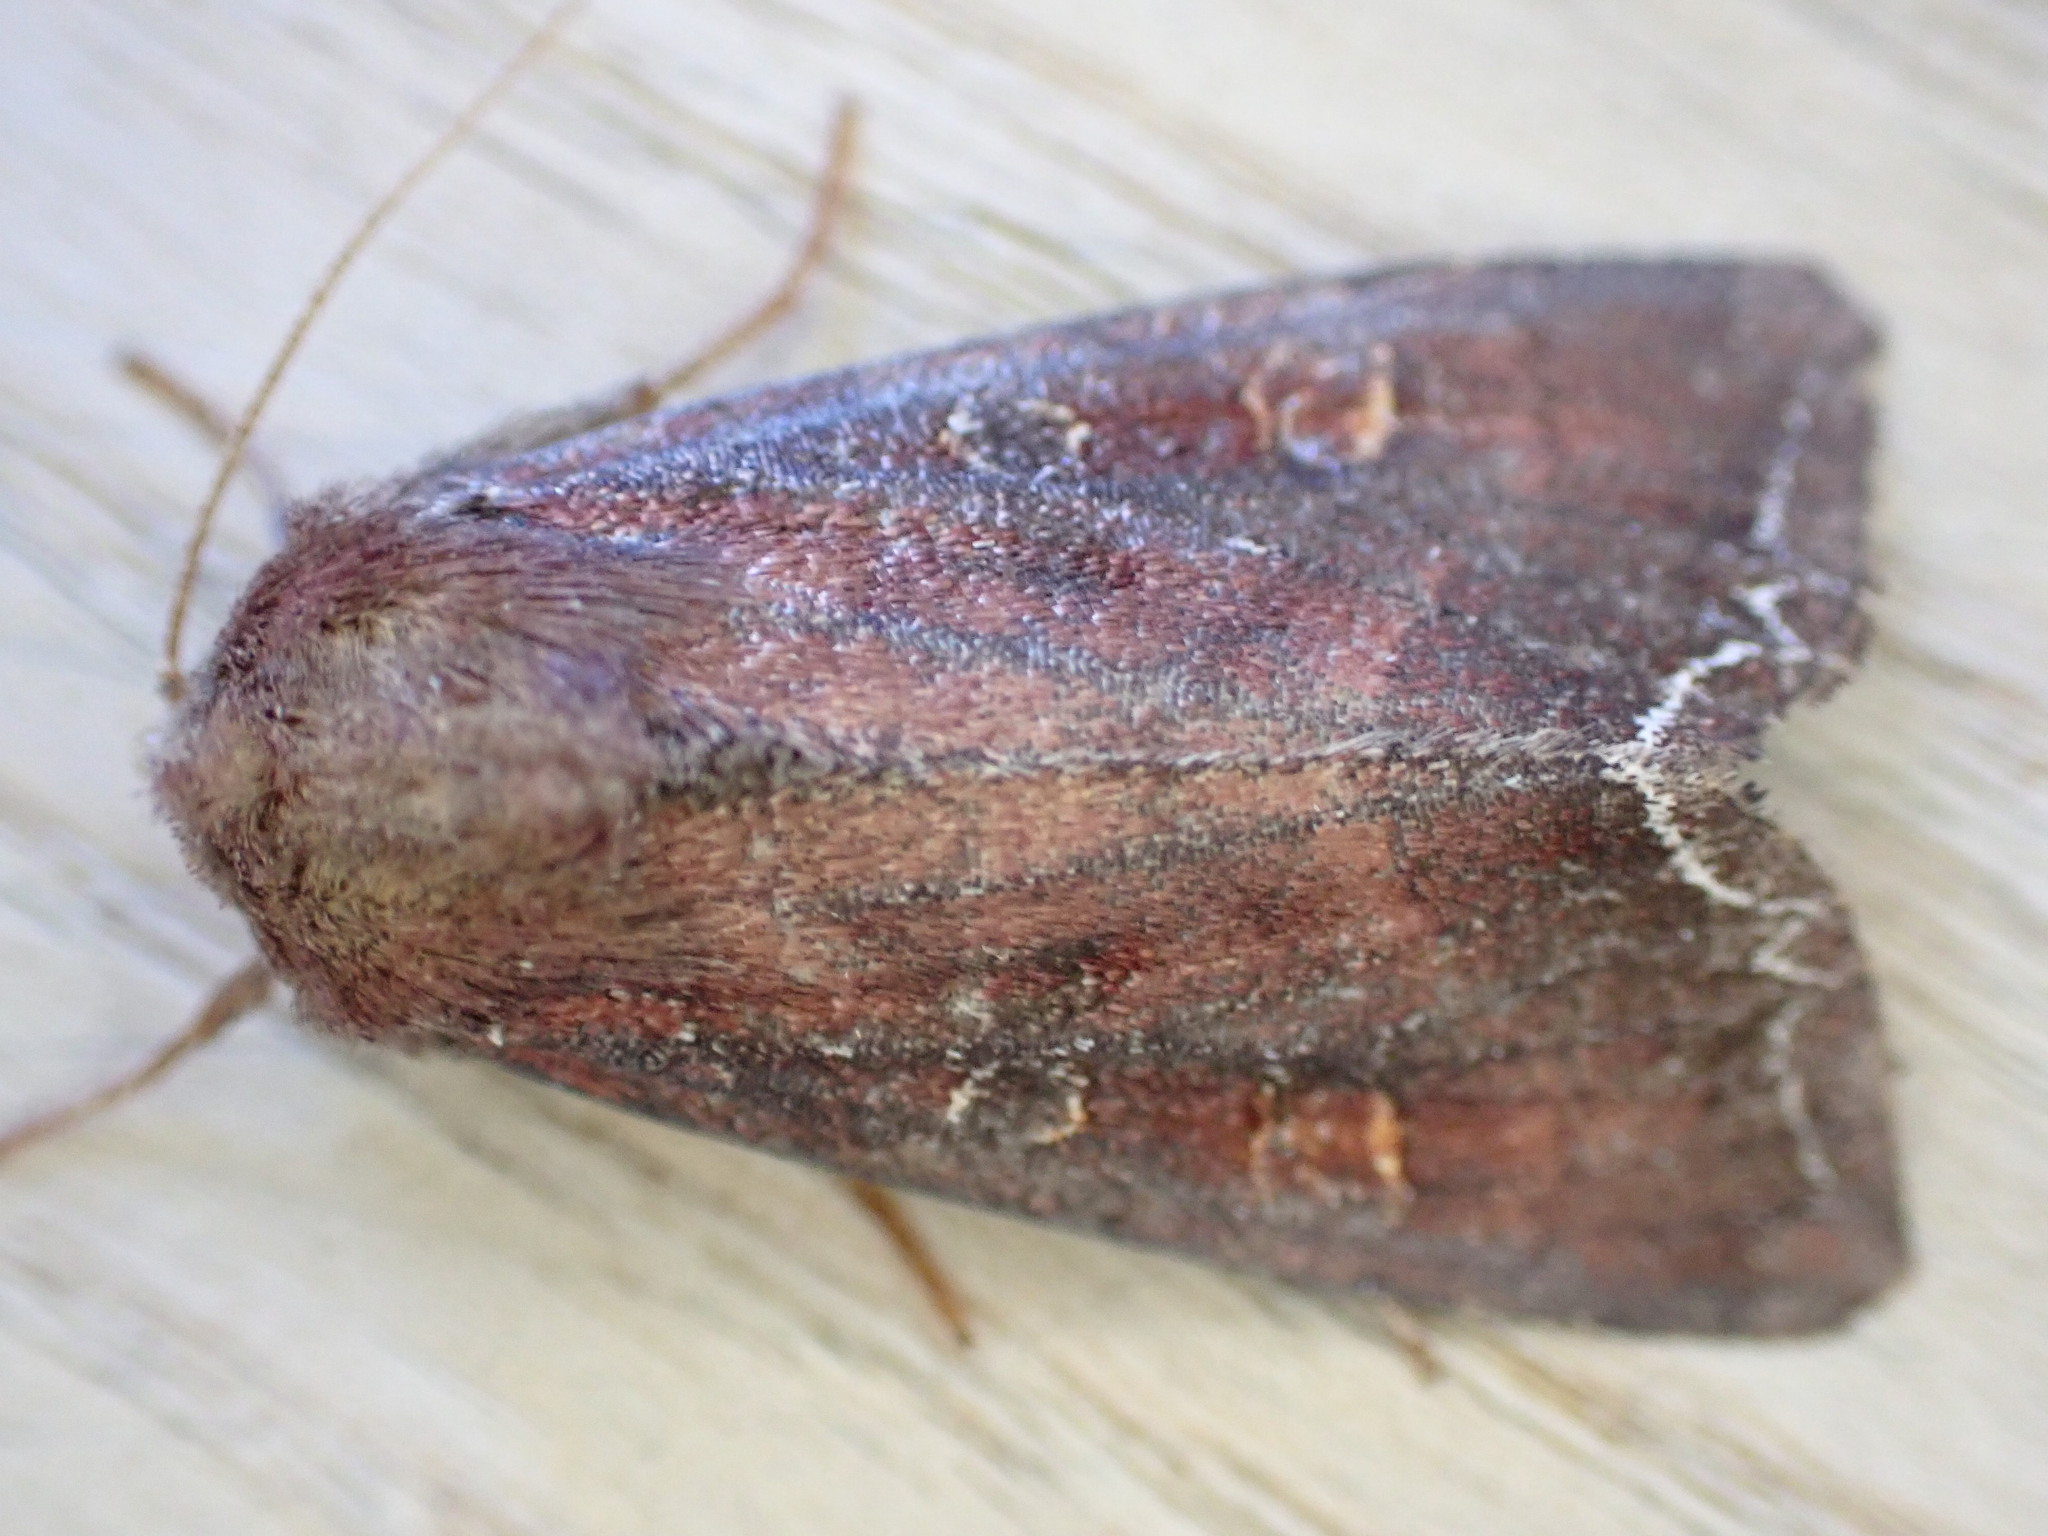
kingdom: Animalia
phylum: Arthropoda
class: Insecta
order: Lepidoptera
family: Noctuidae
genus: Lacanobia
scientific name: Lacanobia oleracea
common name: Bright-line brown-eye
